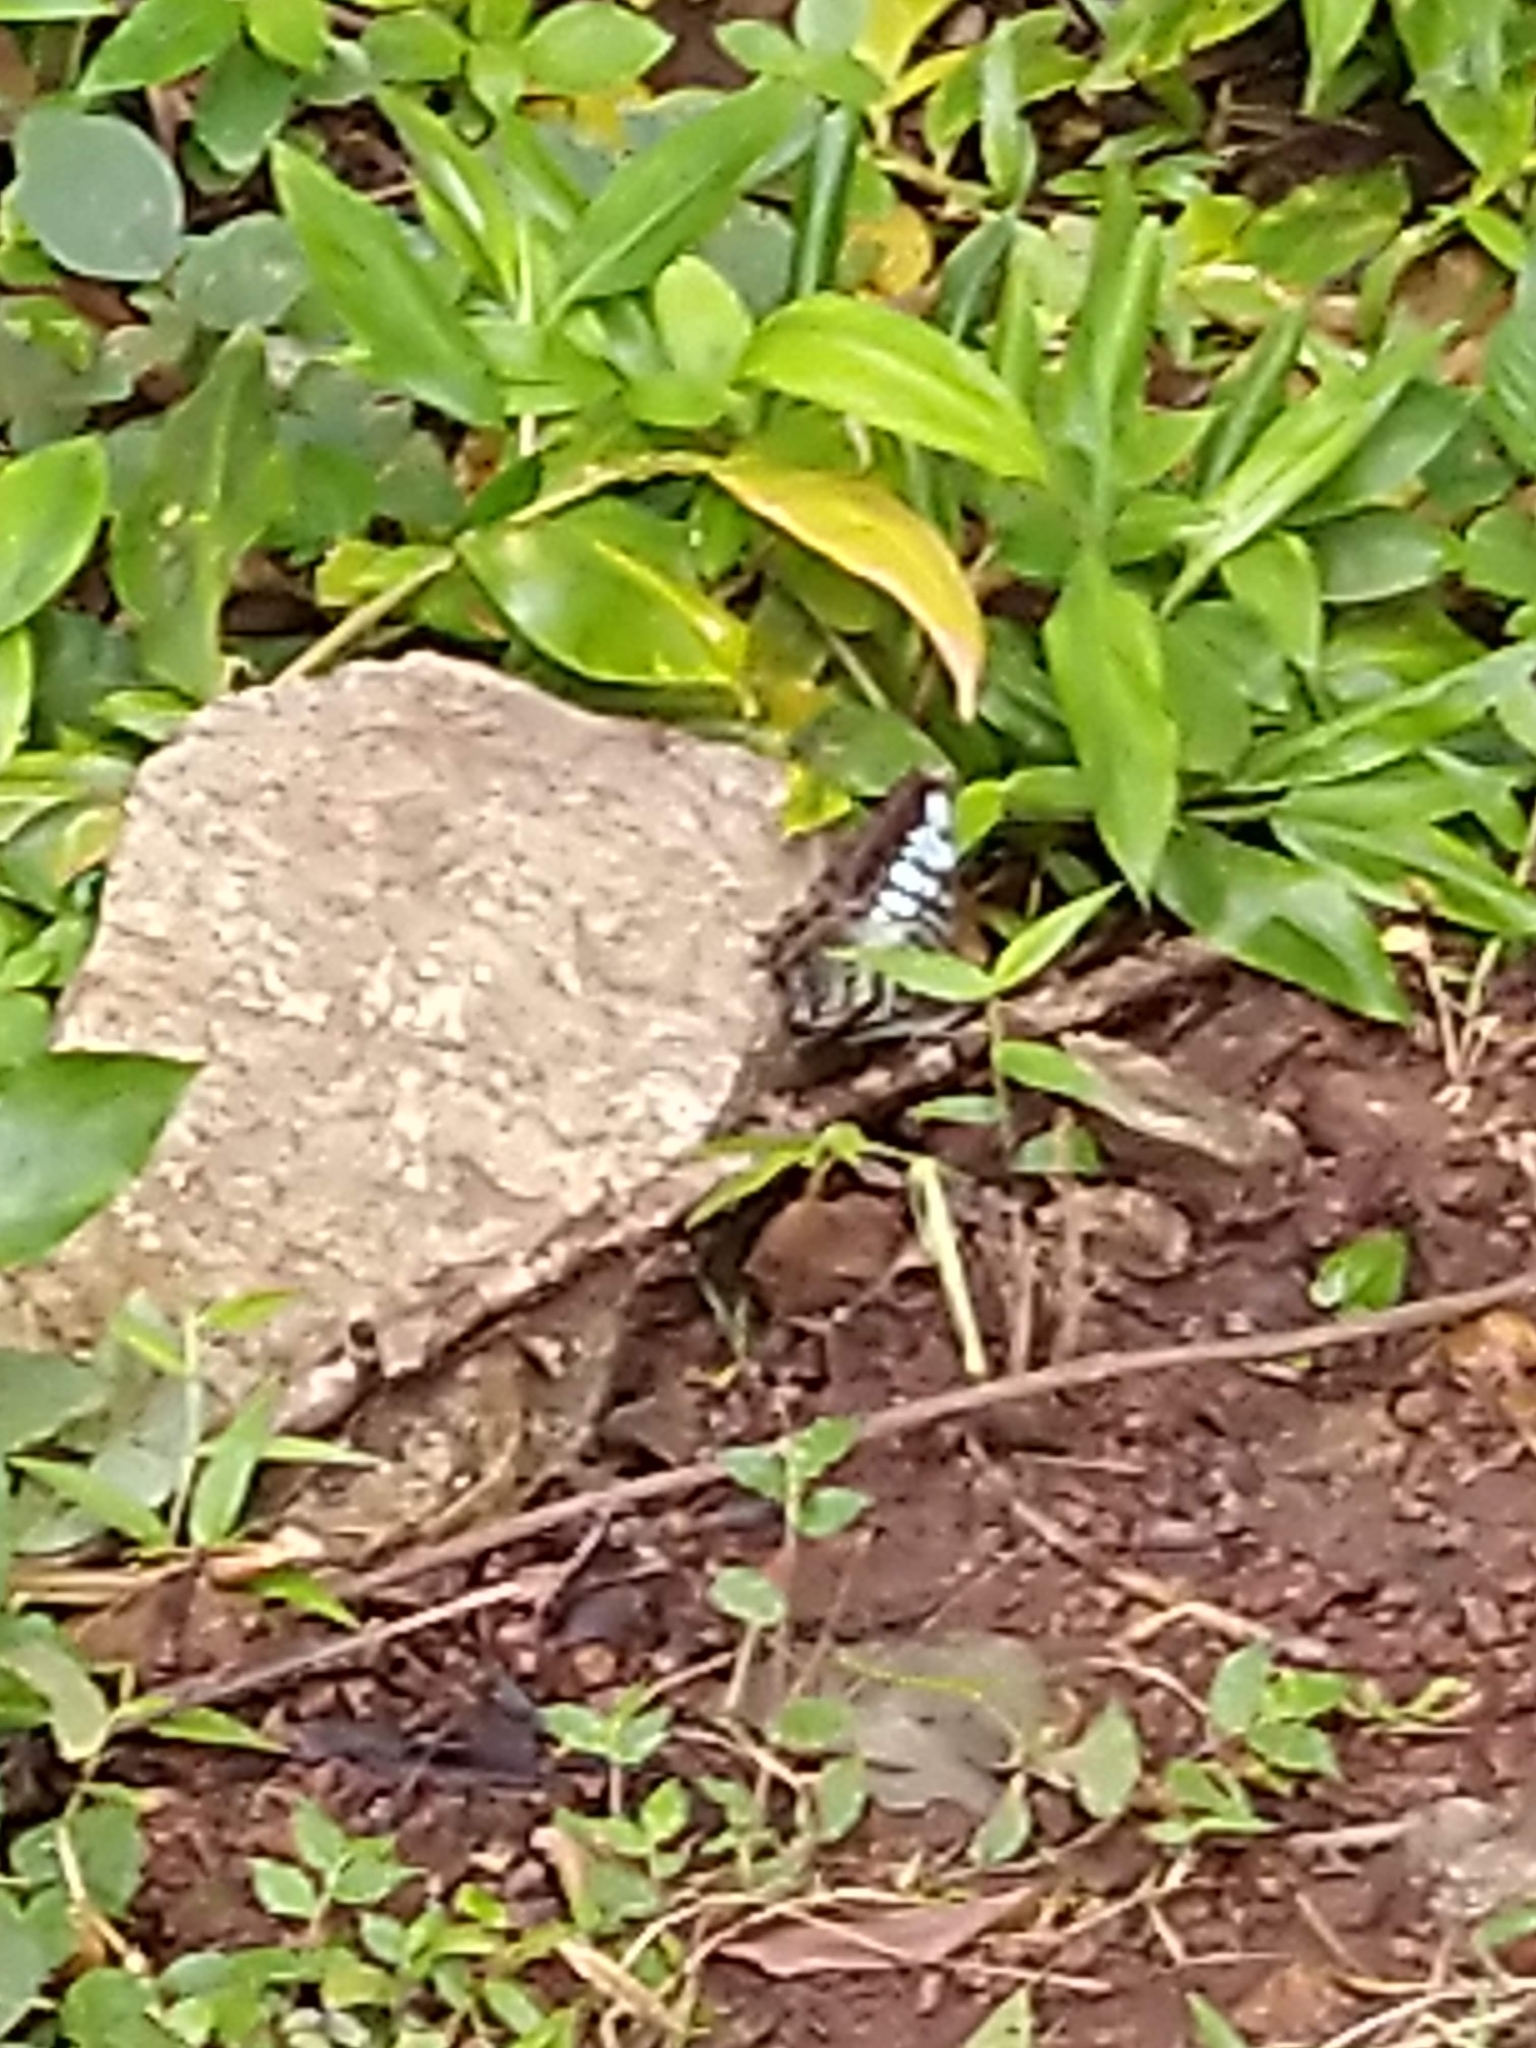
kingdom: Animalia
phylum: Arthropoda
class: Insecta
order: Lepidoptera
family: Nymphalidae
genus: Kallima
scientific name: Kallima sylvia
